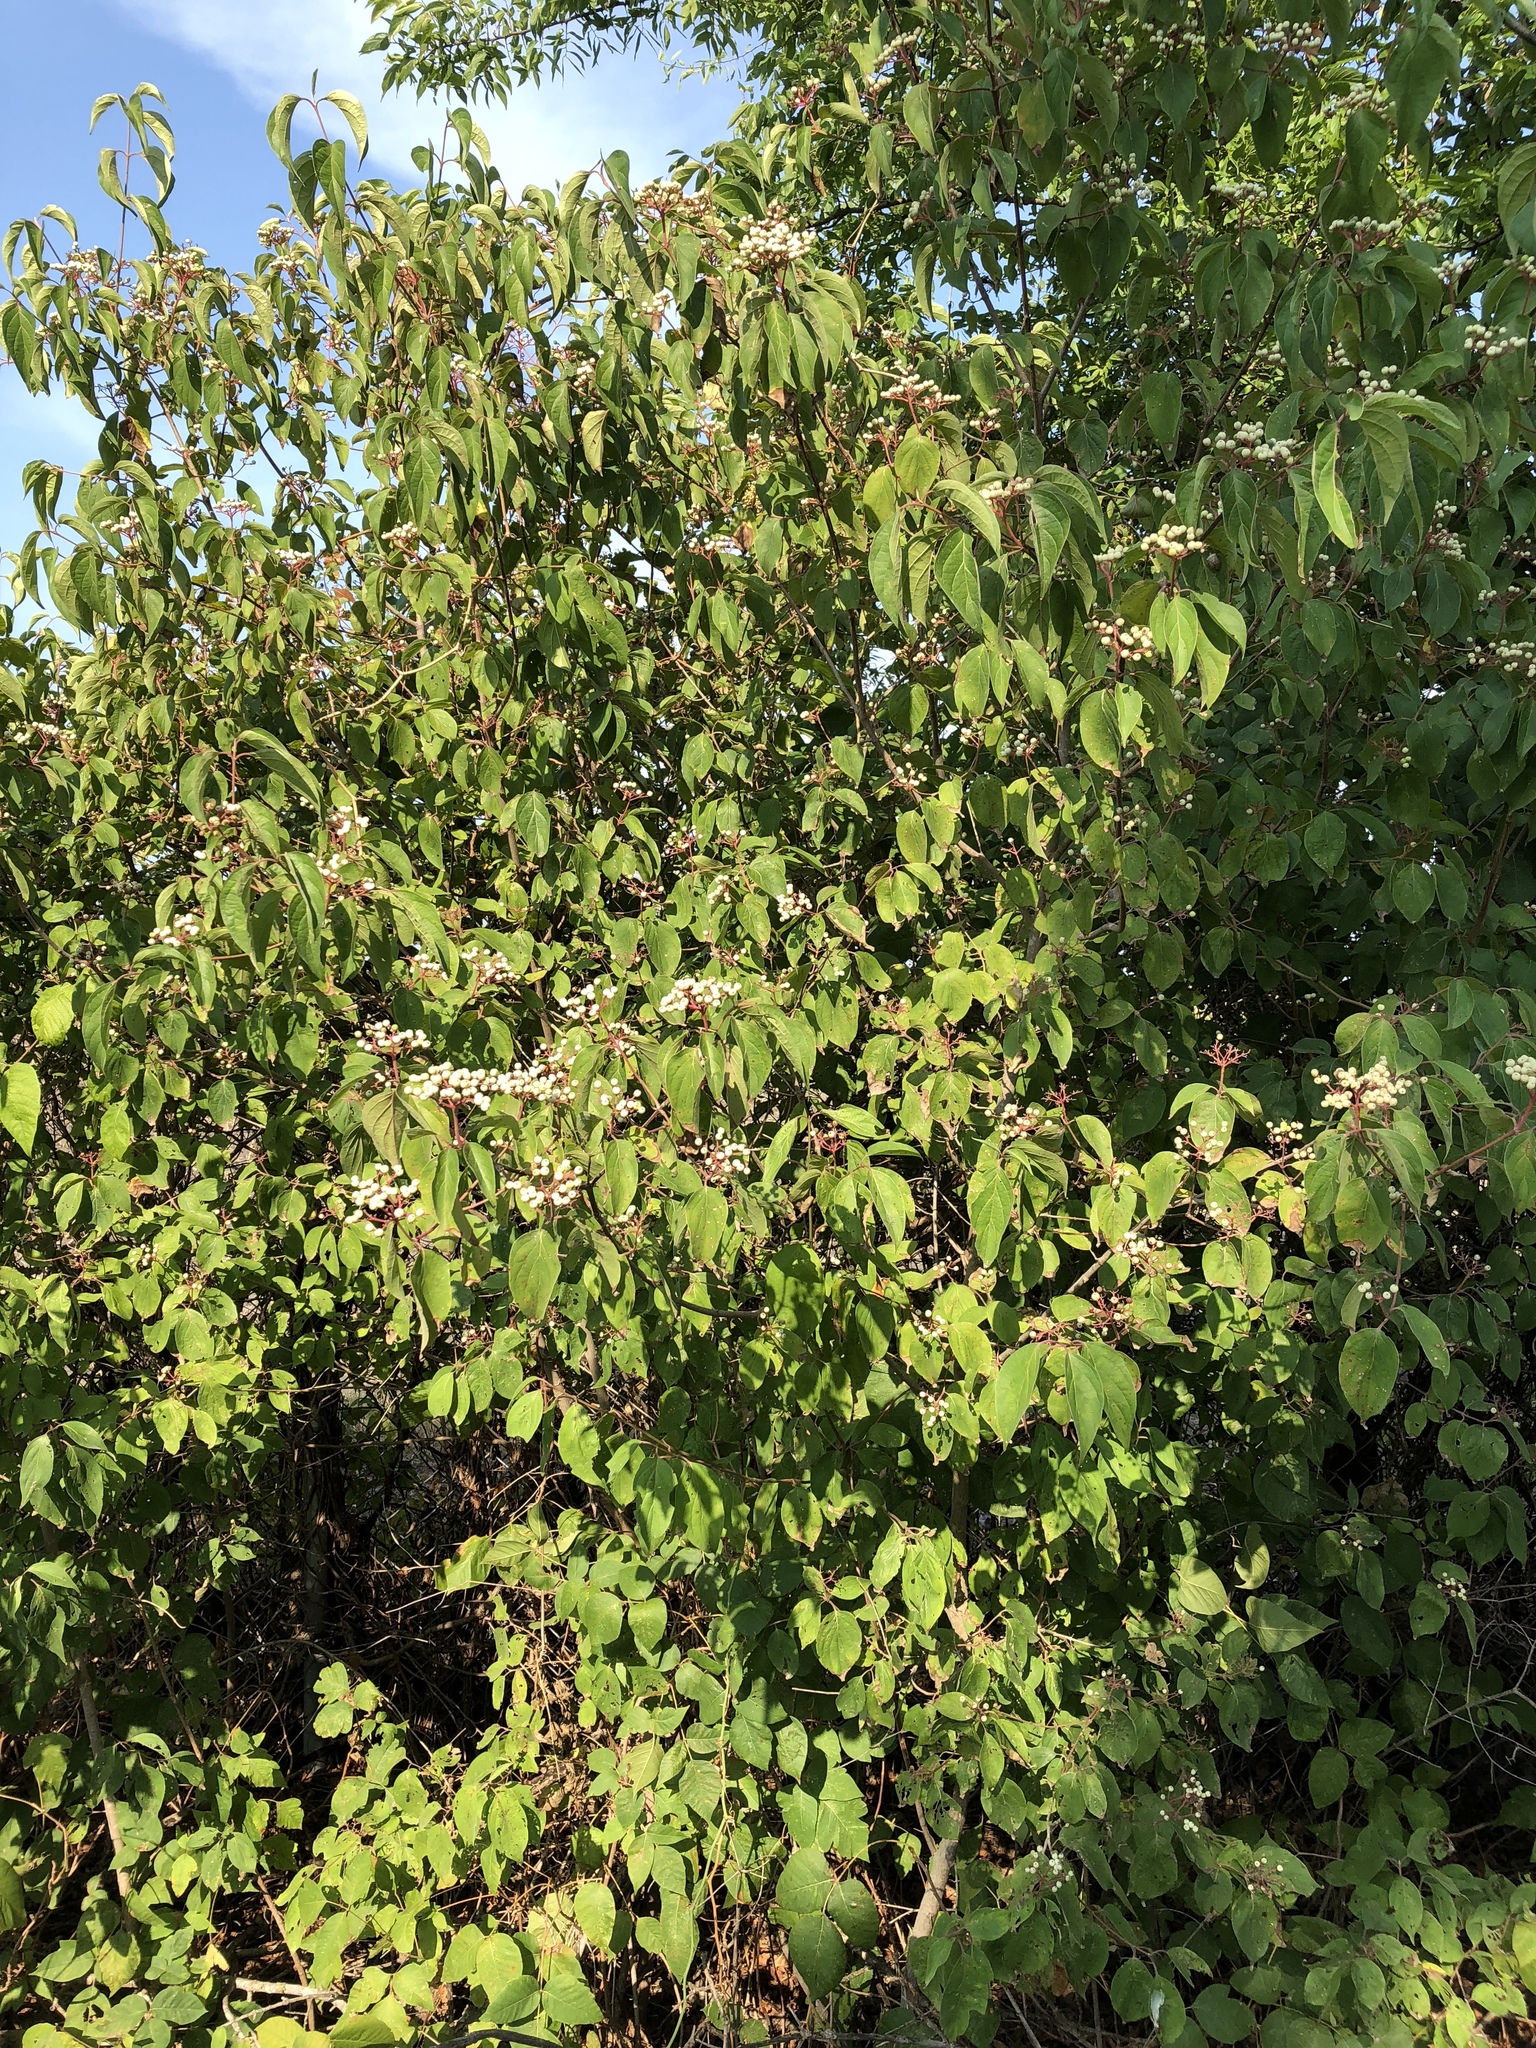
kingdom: Plantae
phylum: Tracheophyta
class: Magnoliopsida
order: Cornales
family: Cornaceae
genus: Cornus
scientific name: Cornus drummondii
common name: Rough-leaf dogwood
